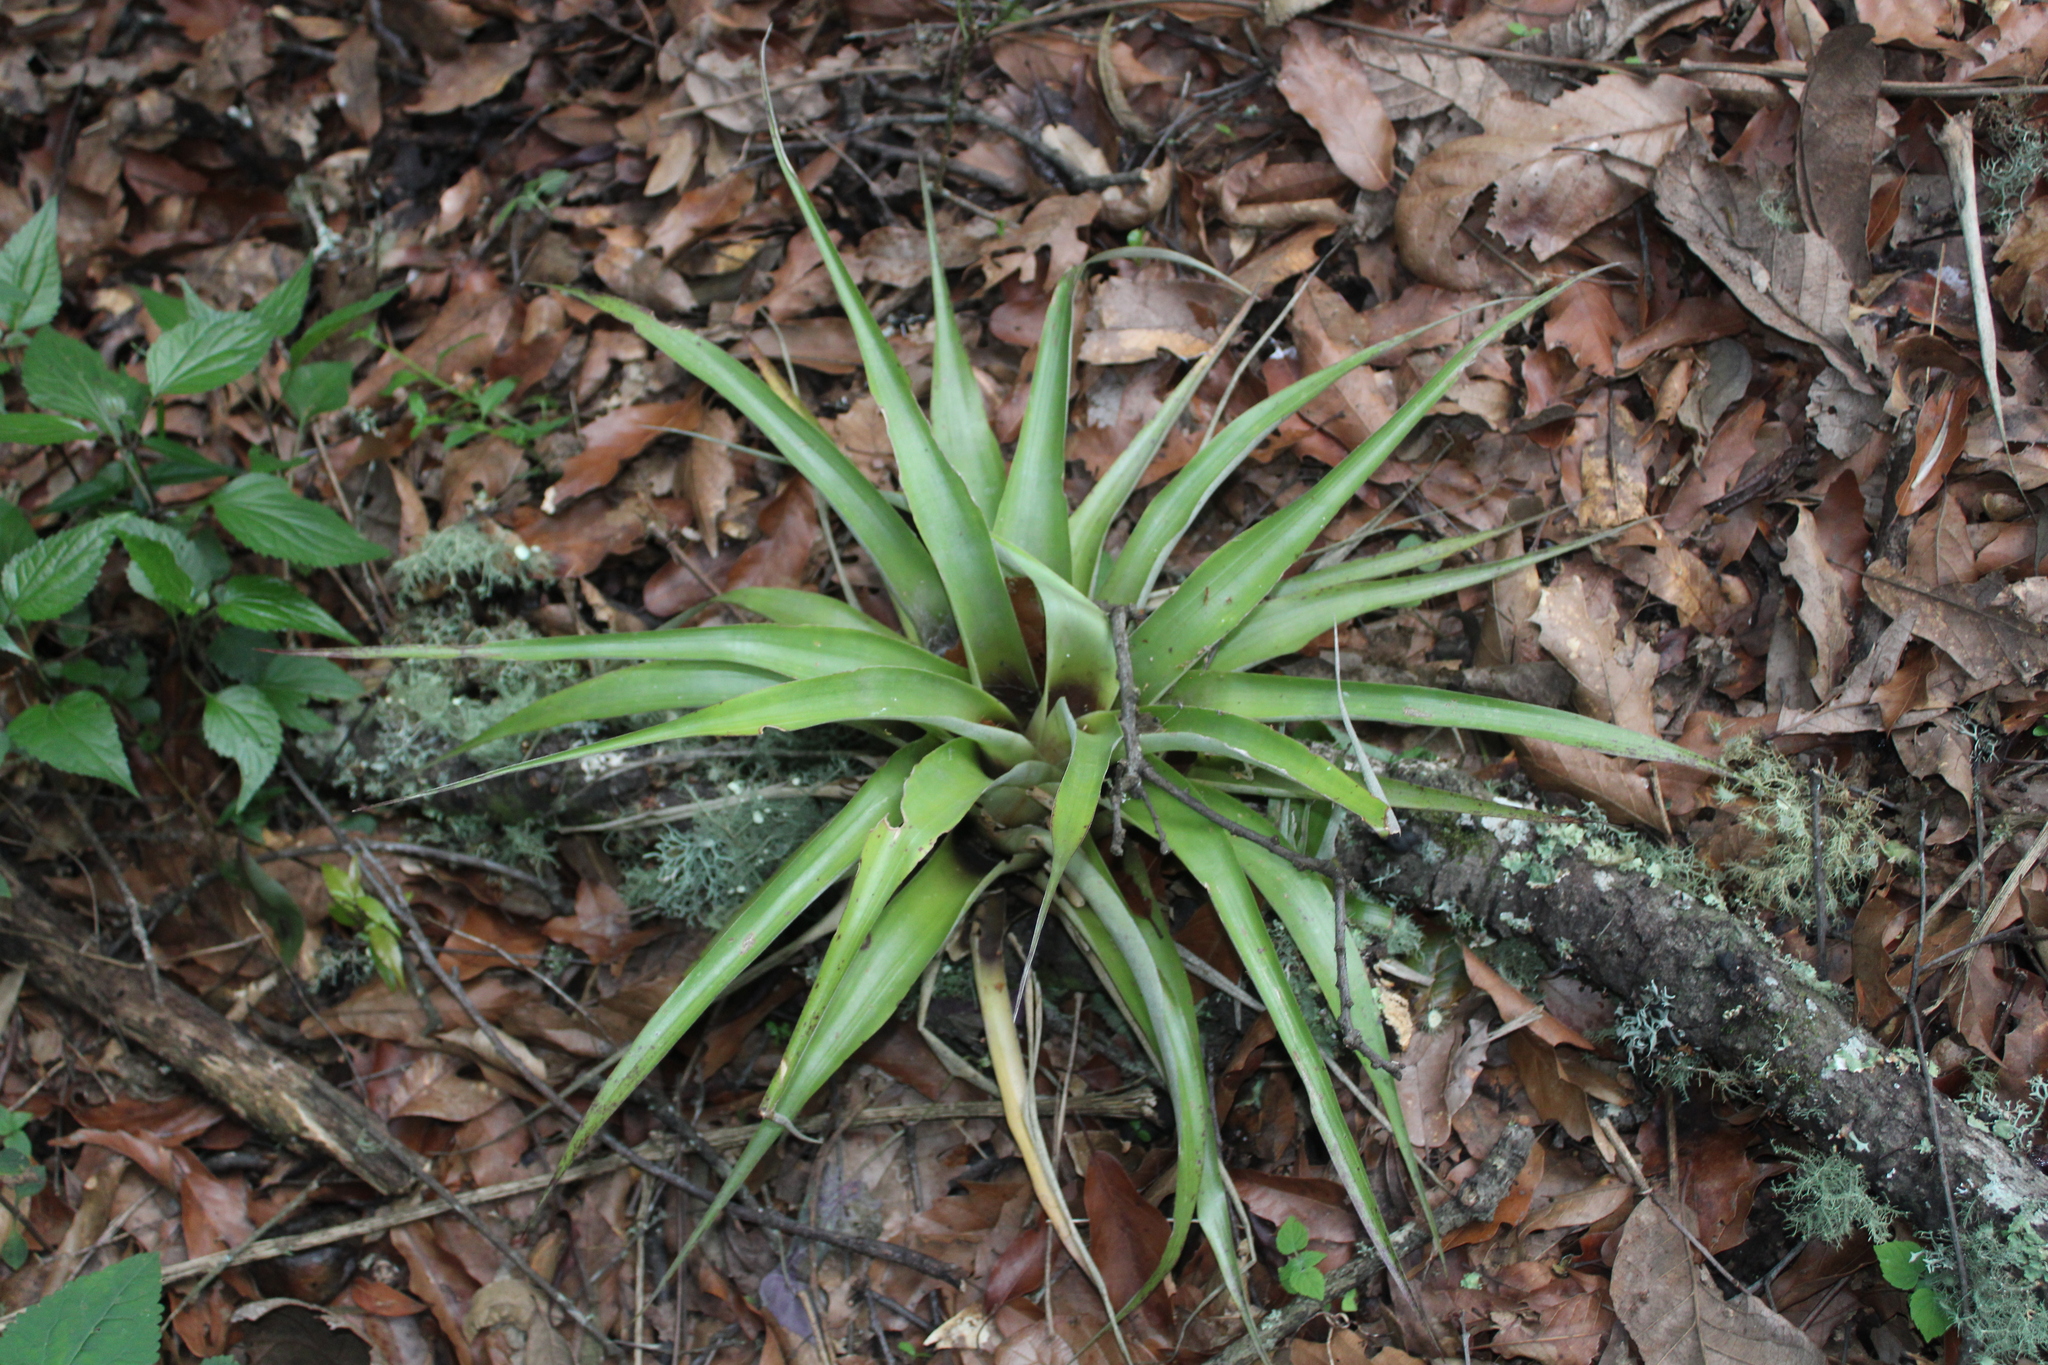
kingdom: Plantae
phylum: Tracheophyta
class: Liliopsida
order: Poales
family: Bromeliaceae
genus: Tillandsia
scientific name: Tillandsia capitata
